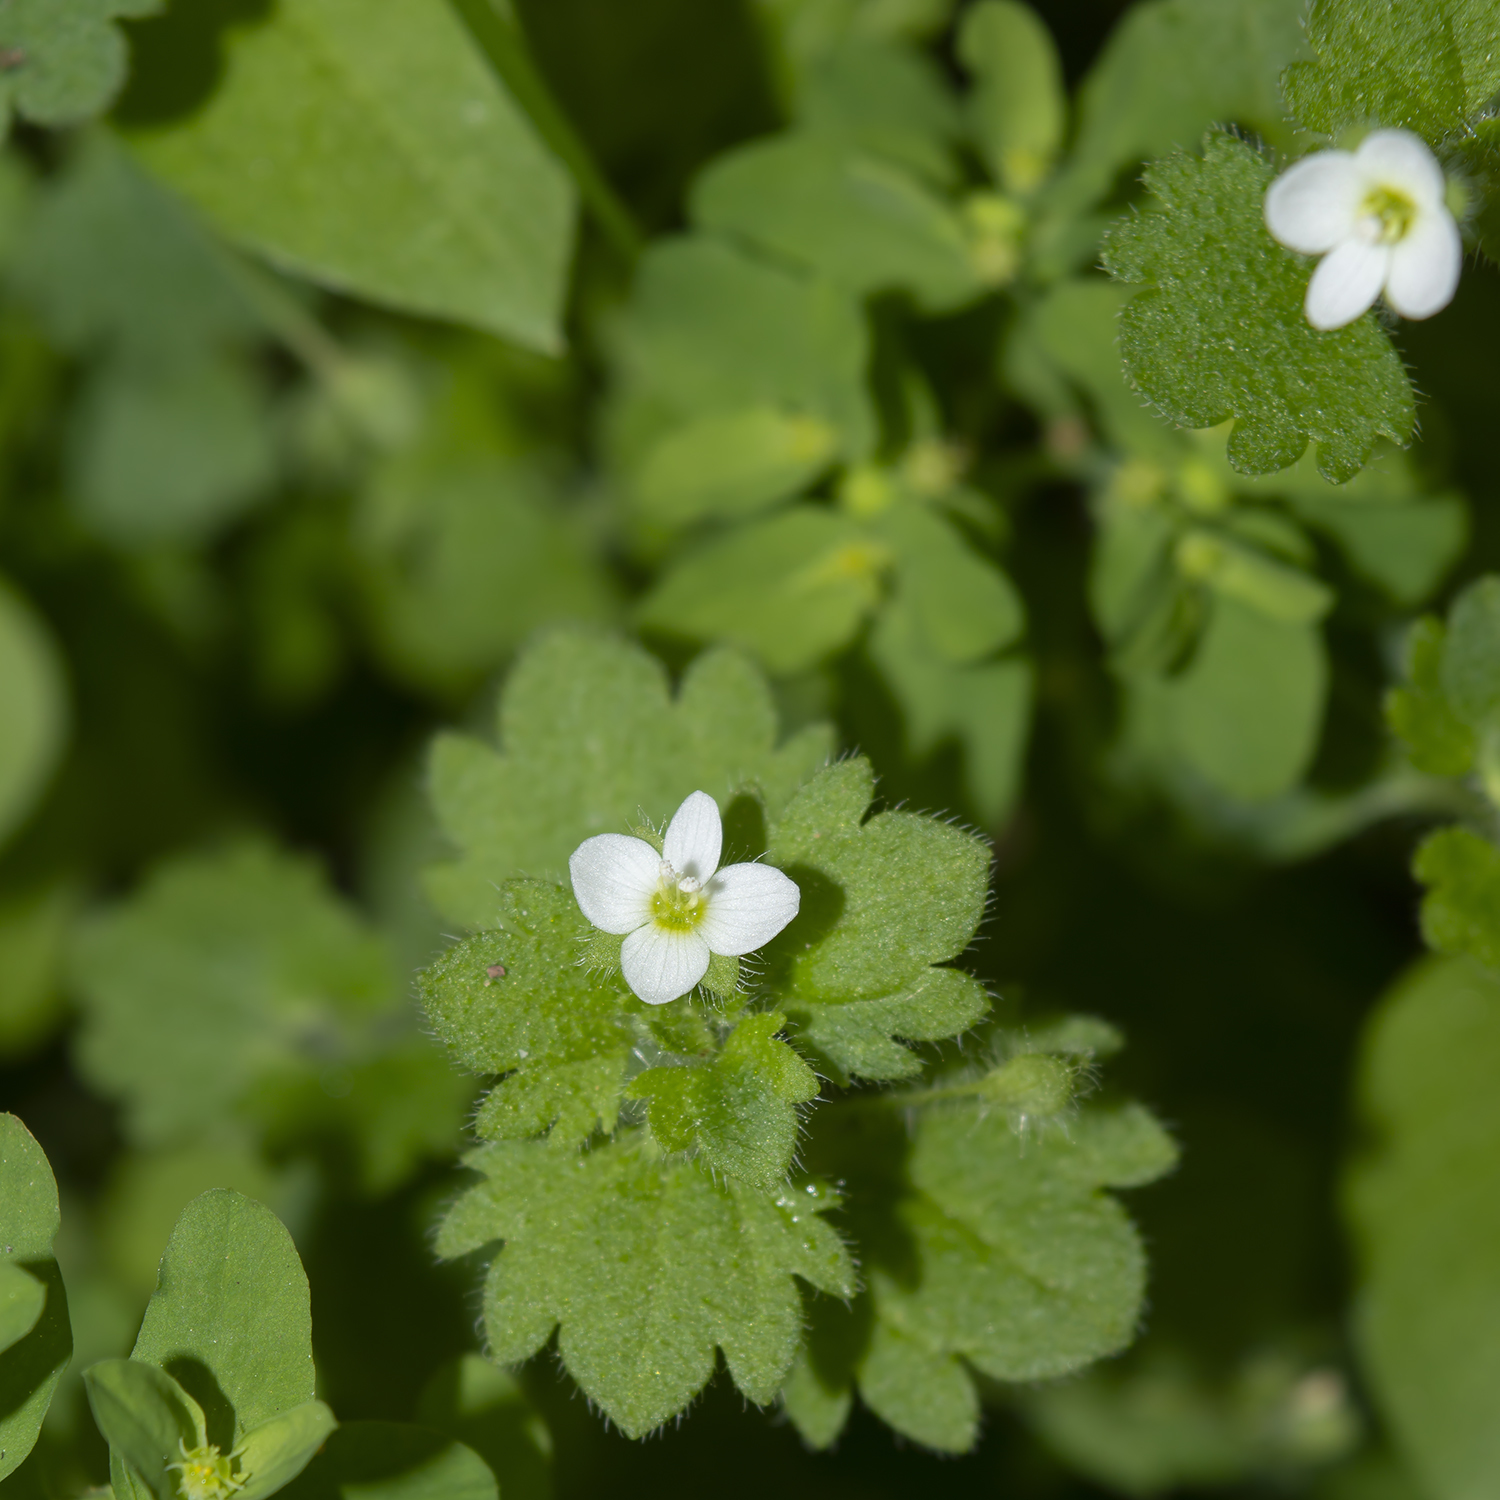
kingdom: Plantae
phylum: Tracheophyta
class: Magnoliopsida
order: Lamiales
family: Plantaginaceae
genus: Veronica
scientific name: Veronica cymbalaria
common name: Pale speedwell
